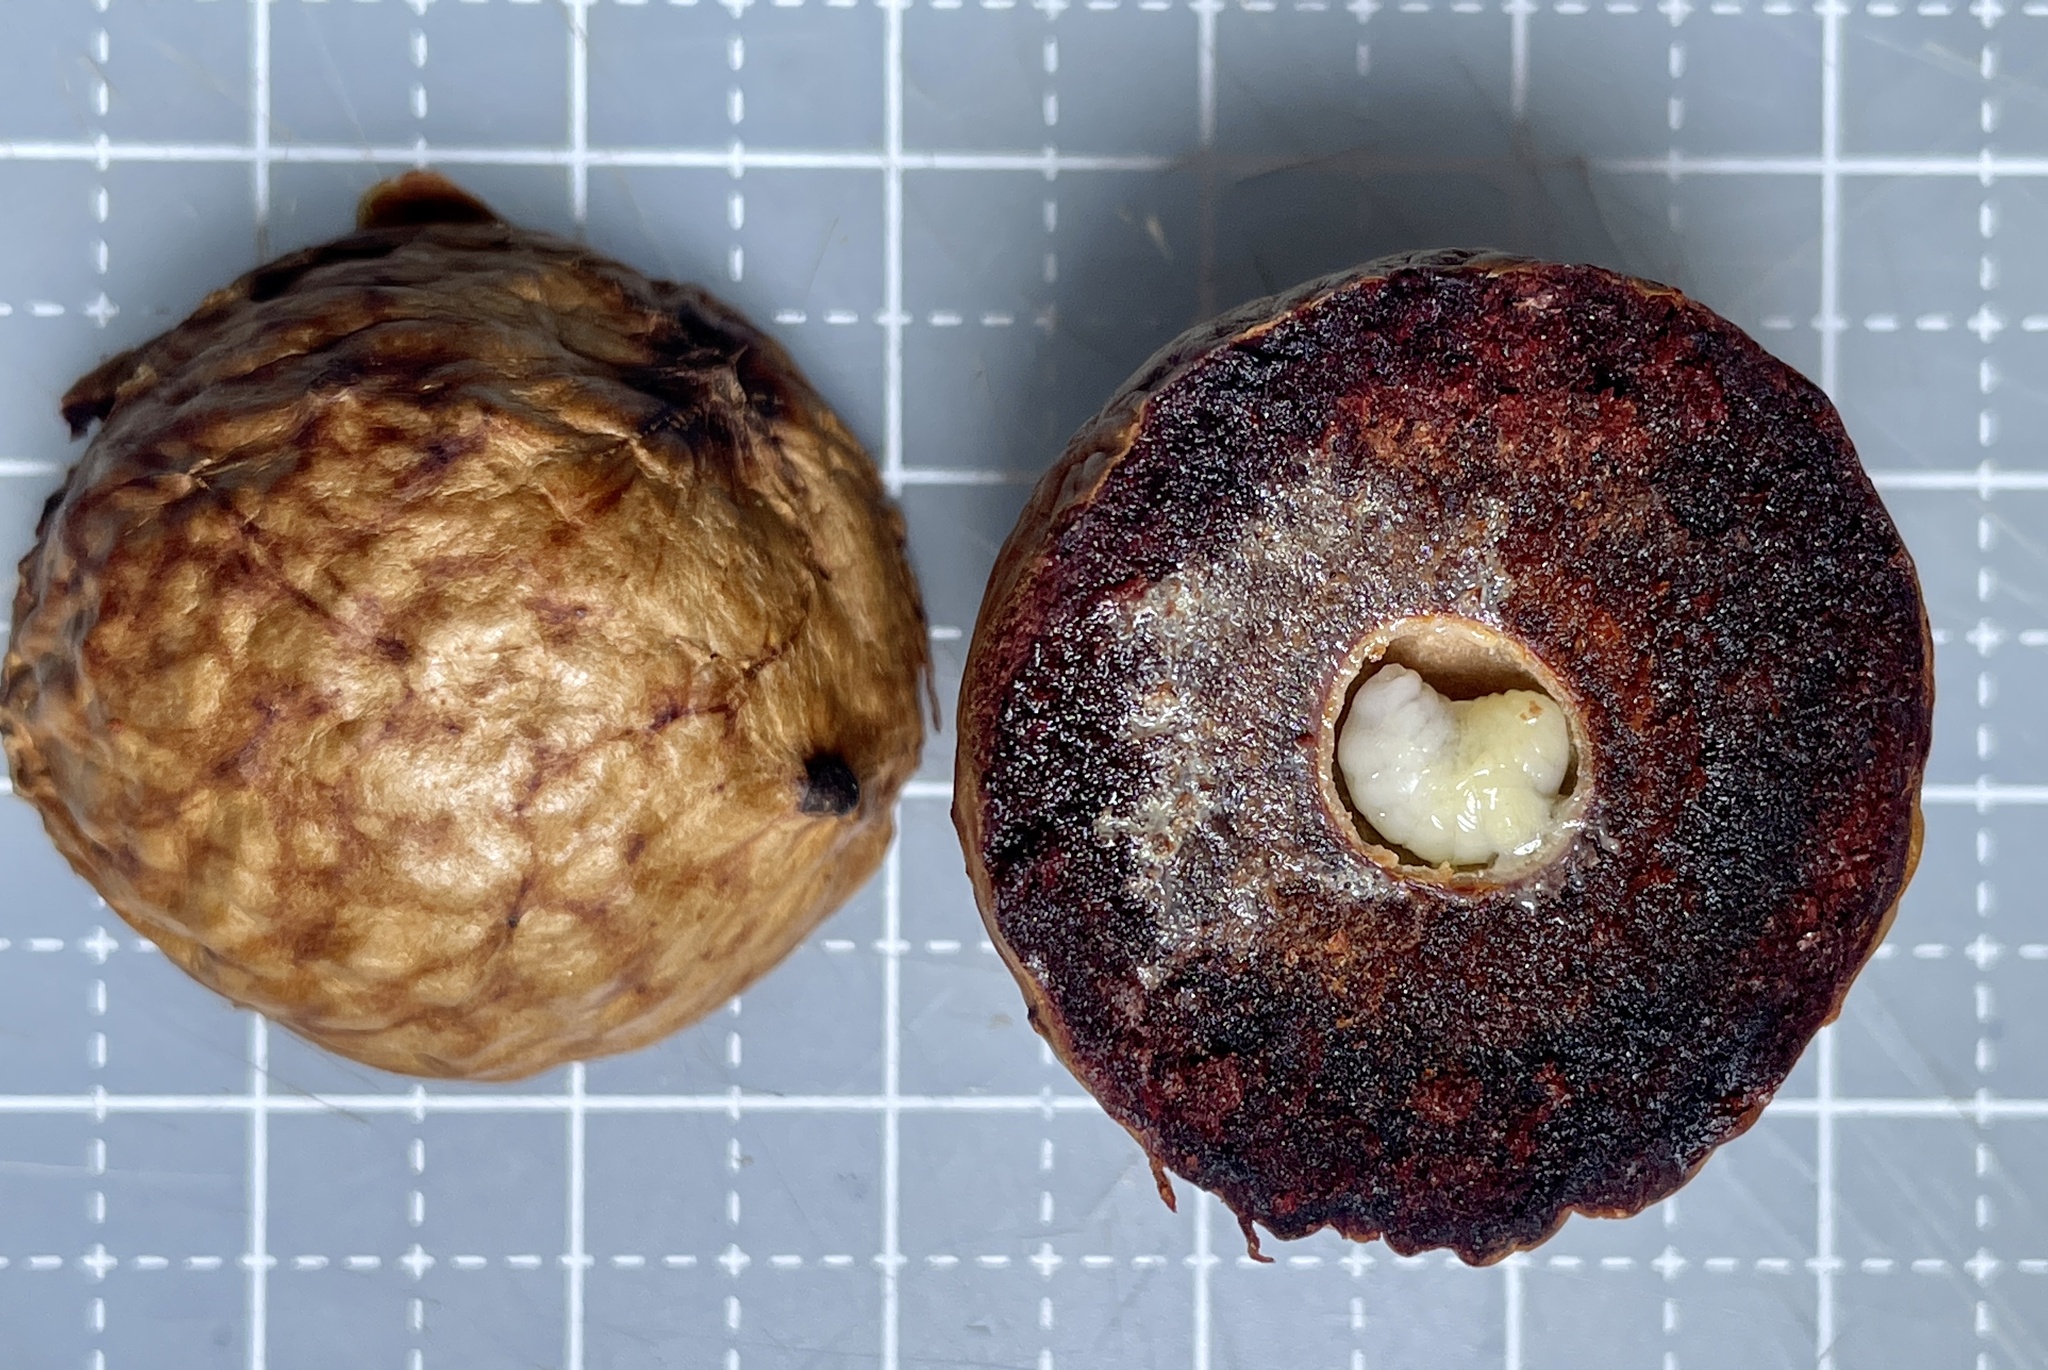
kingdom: Animalia
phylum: Arthropoda
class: Insecta
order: Hymenoptera
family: Cynipidae
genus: Amphibolips
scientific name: Amphibolips
